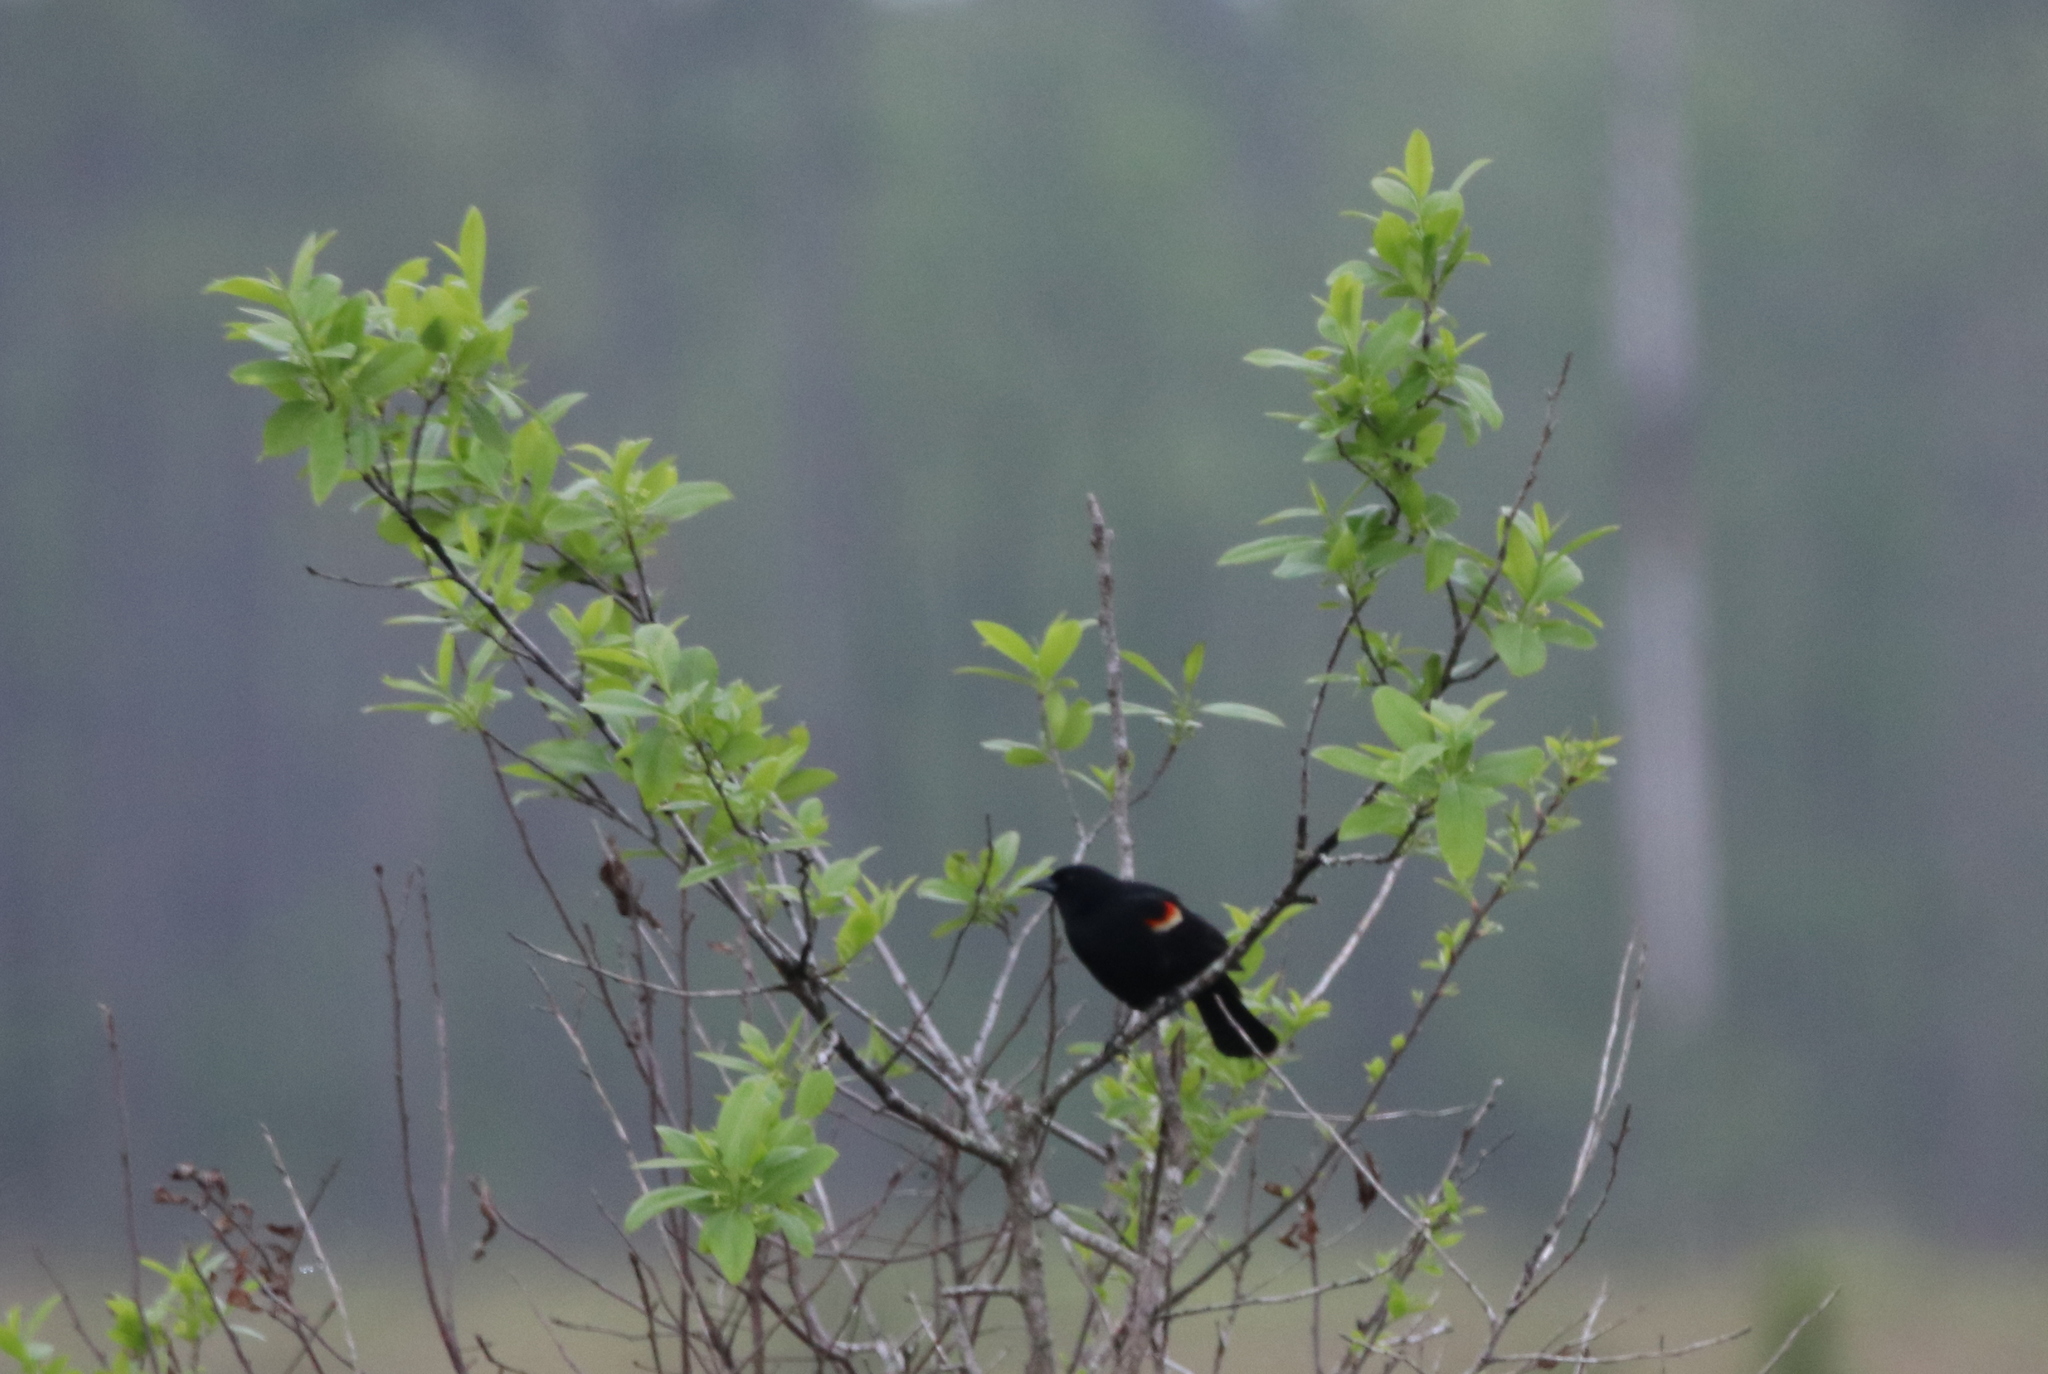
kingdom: Animalia
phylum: Chordata
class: Aves
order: Passeriformes
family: Icteridae
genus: Agelaius
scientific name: Agelaius phoeniceus
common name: Red-winged blackbird
